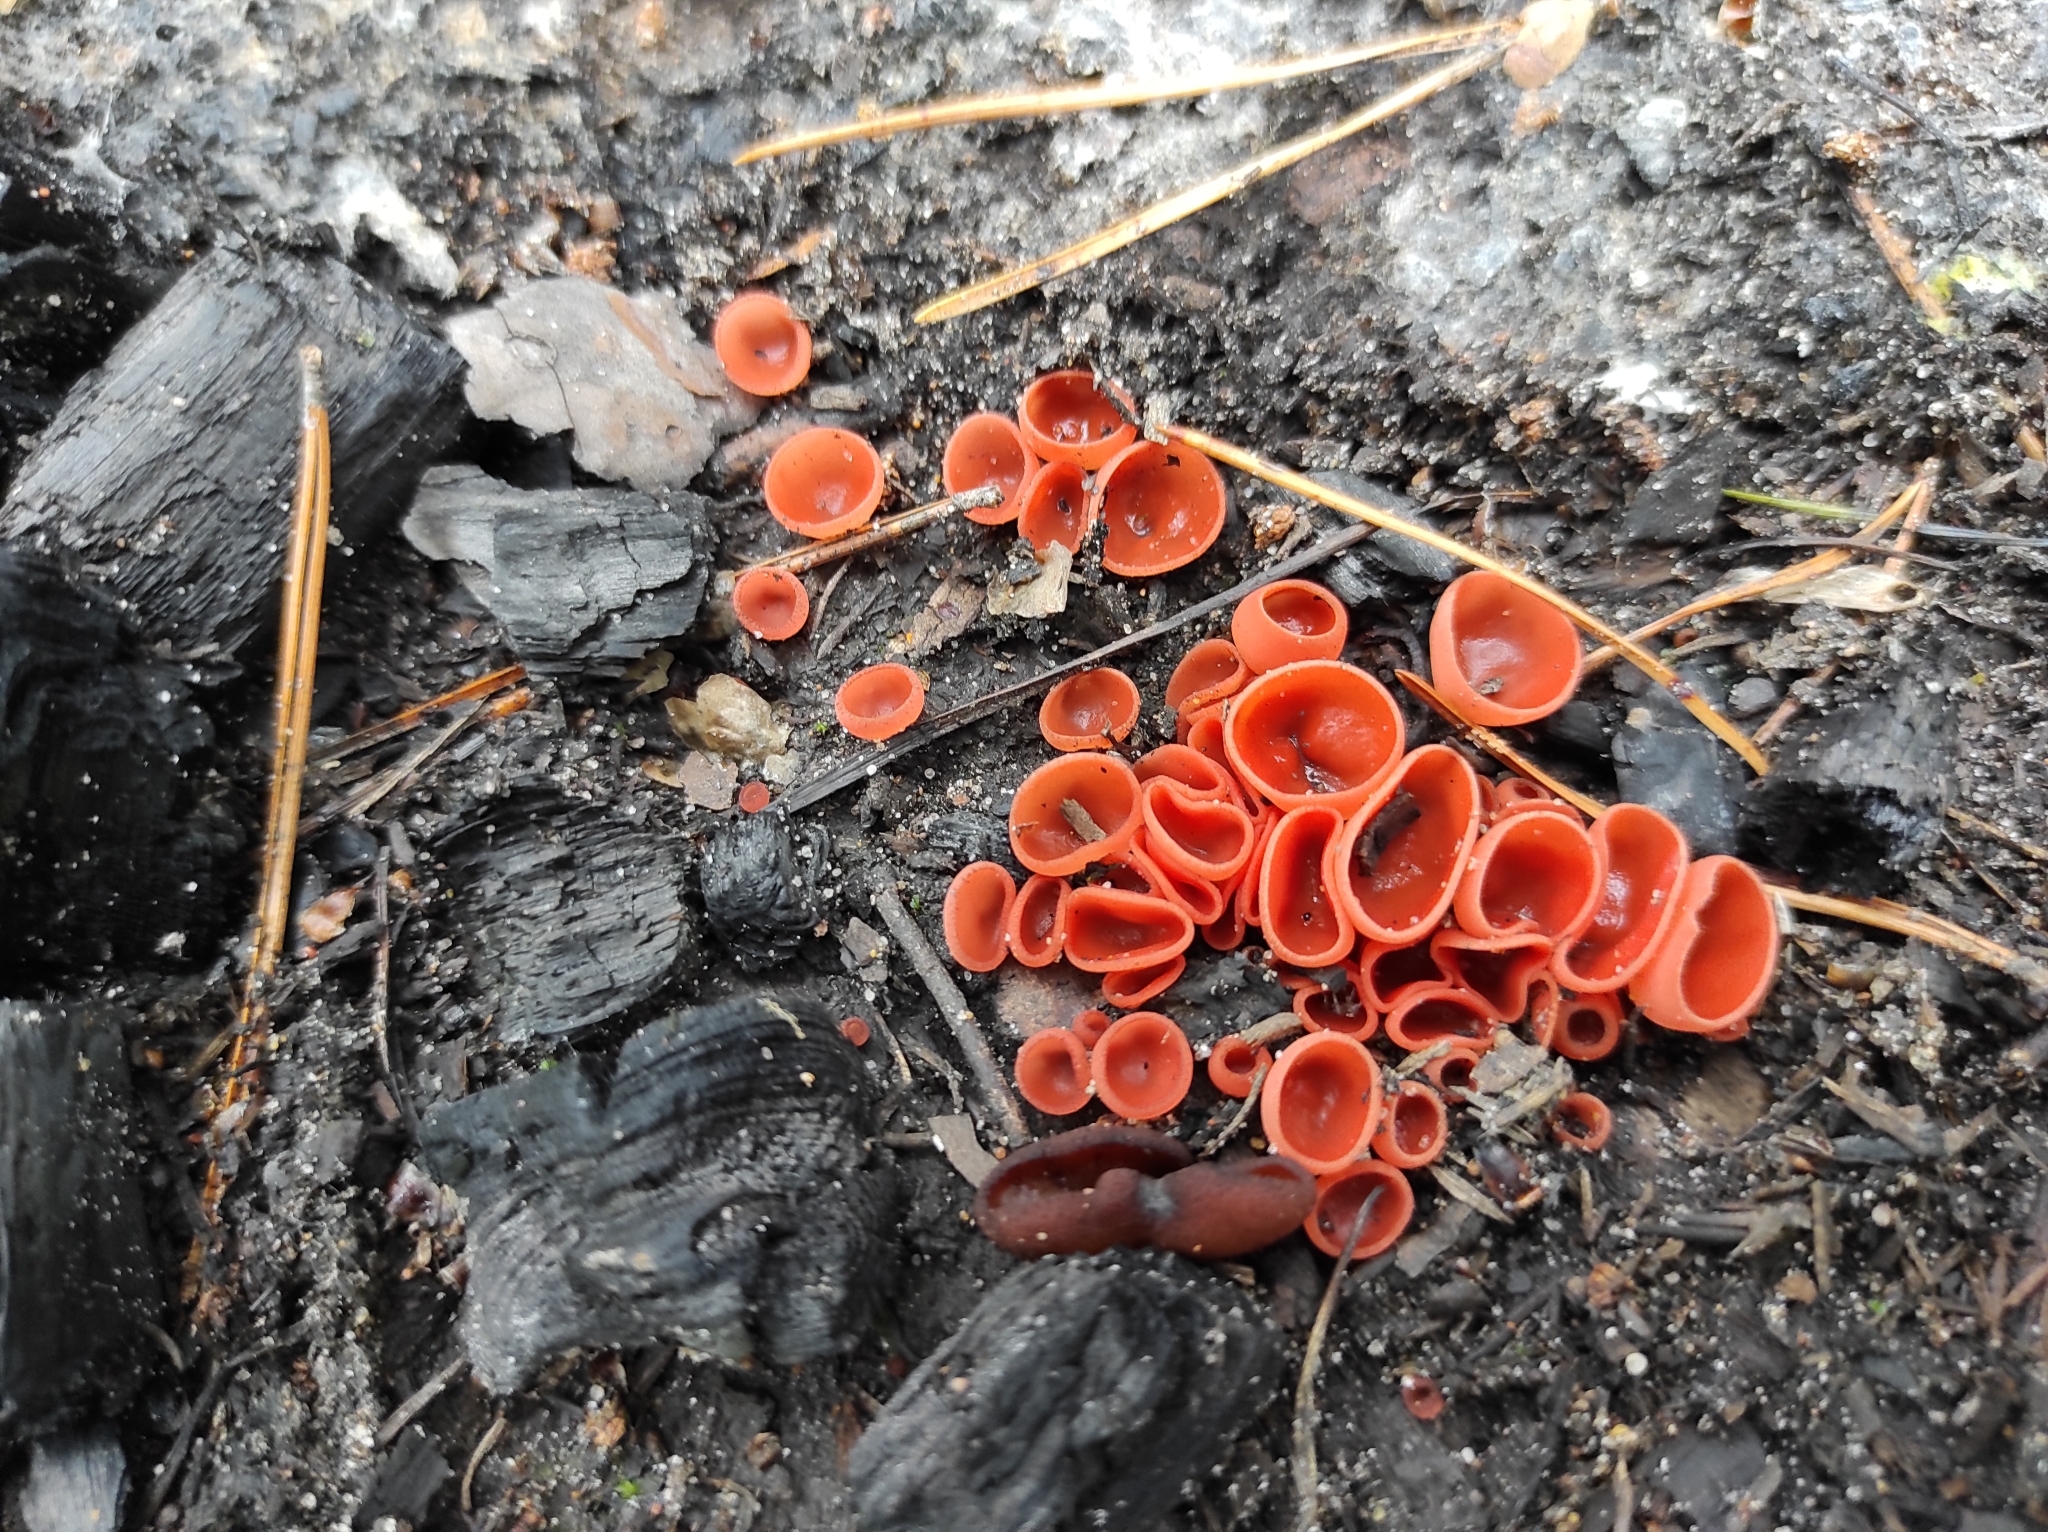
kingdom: Fungi
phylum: Ascomycota
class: Pezizomycetes
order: Pezizales
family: Pyronemataceae
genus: Aleuria
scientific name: Aleuria aurantia
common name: Orange peel fungus
